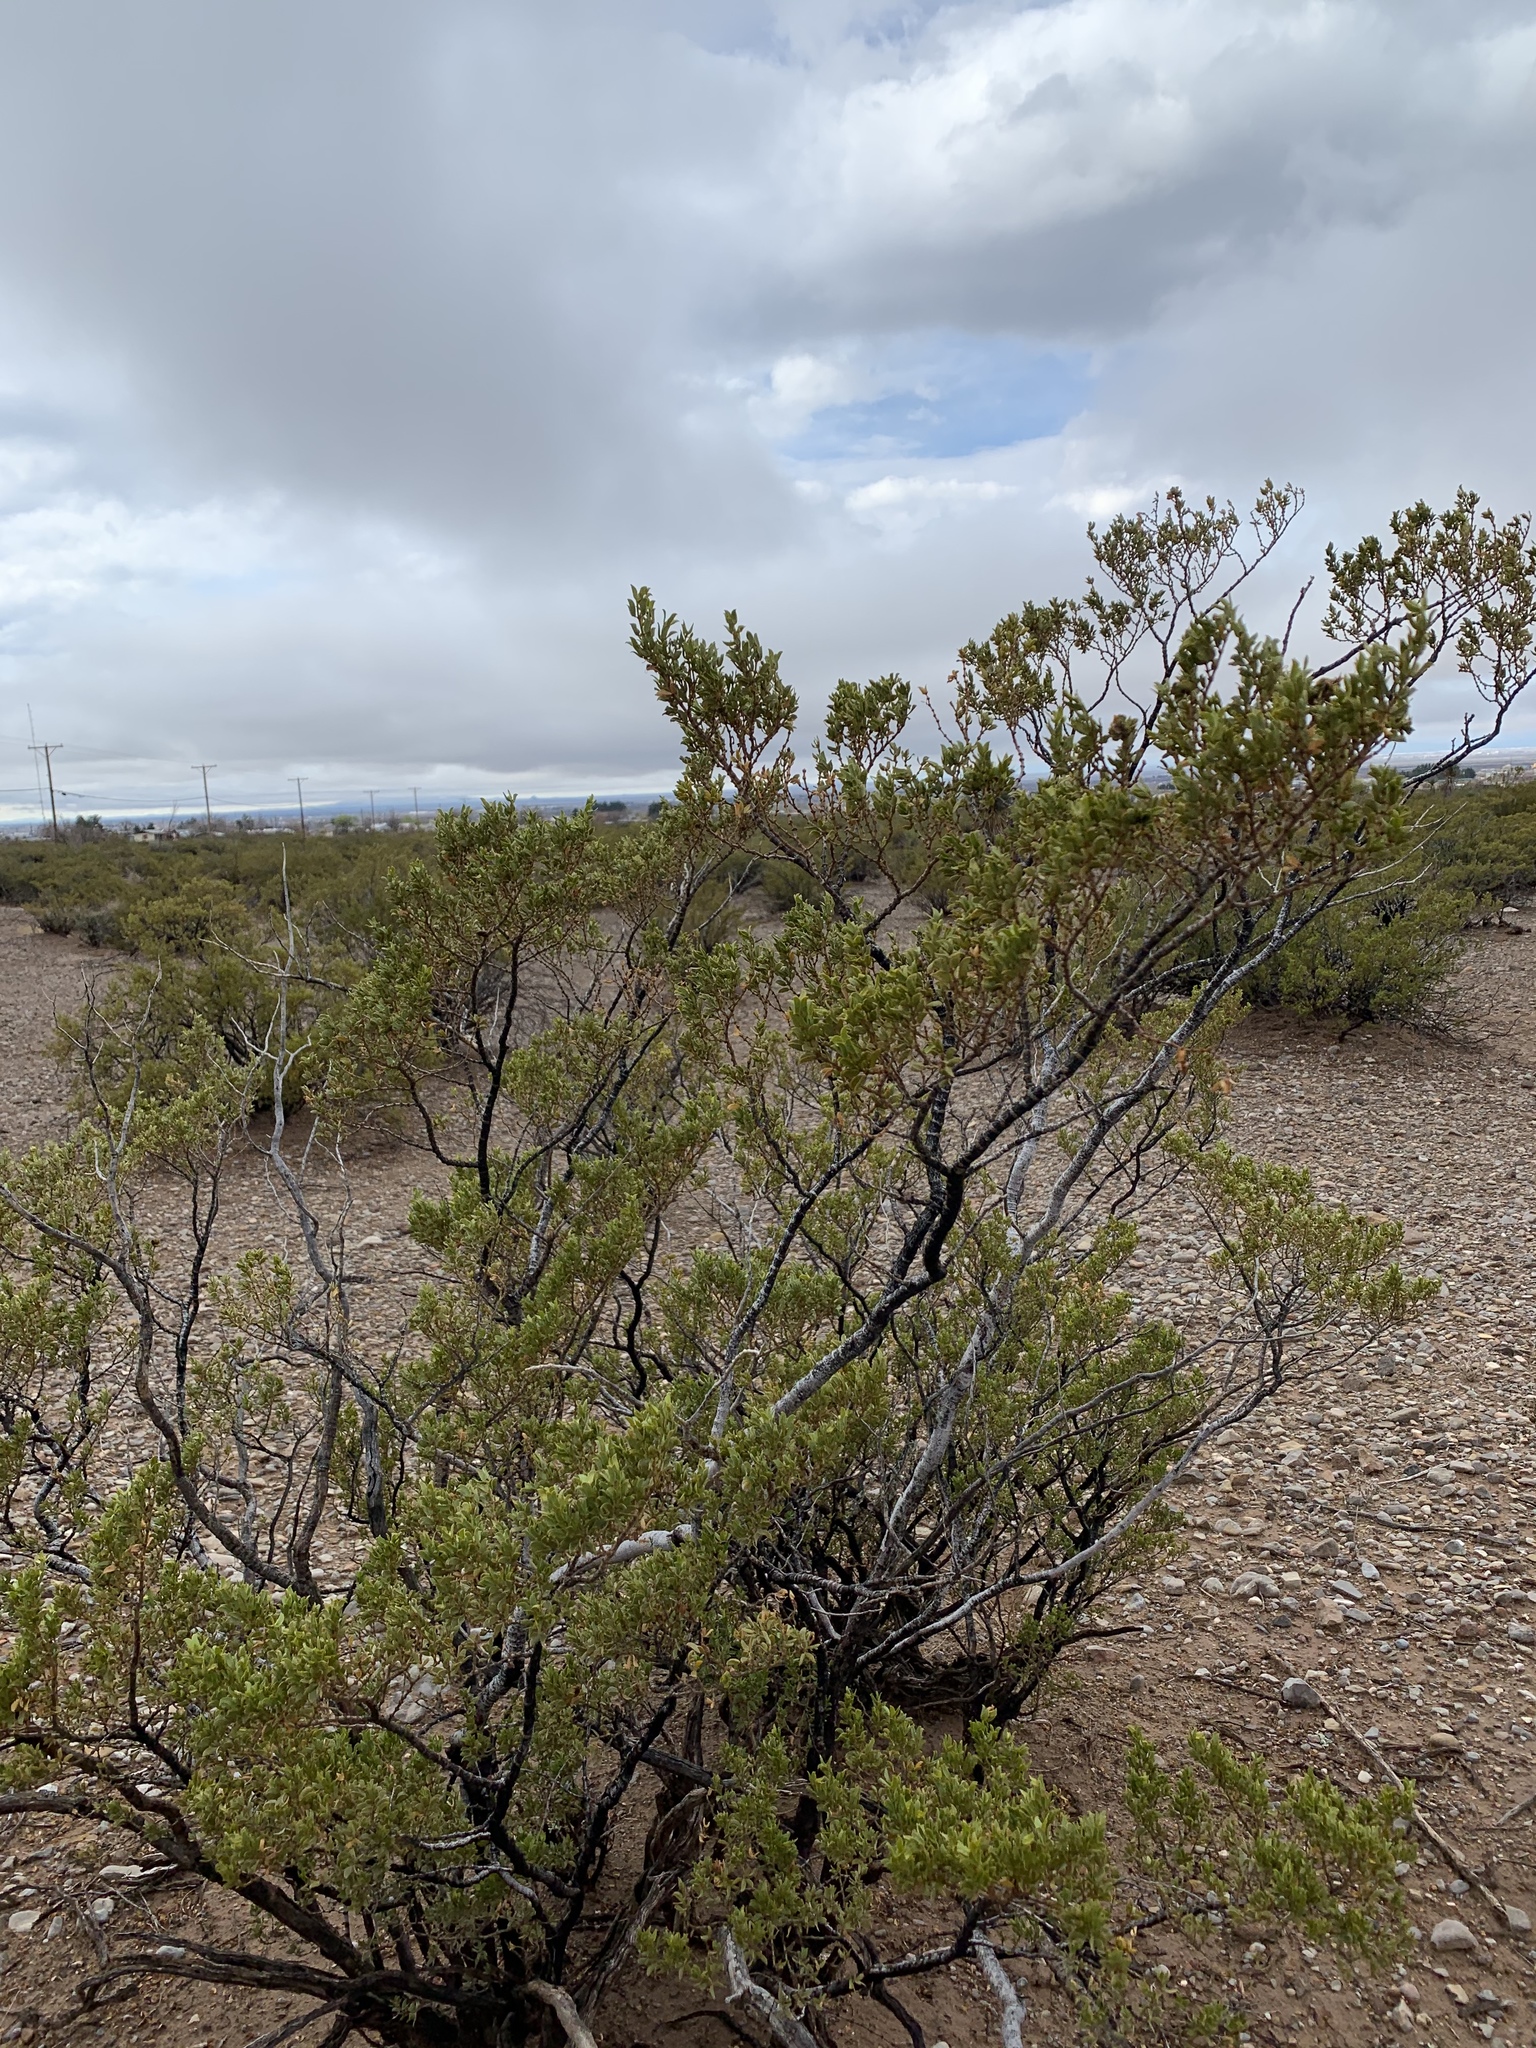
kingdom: Plantae
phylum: Tracheophyta
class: Magnoliopsida
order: Zygophyllales
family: Zygophyllaceae
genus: Larrea
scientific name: Larrea tridentata
